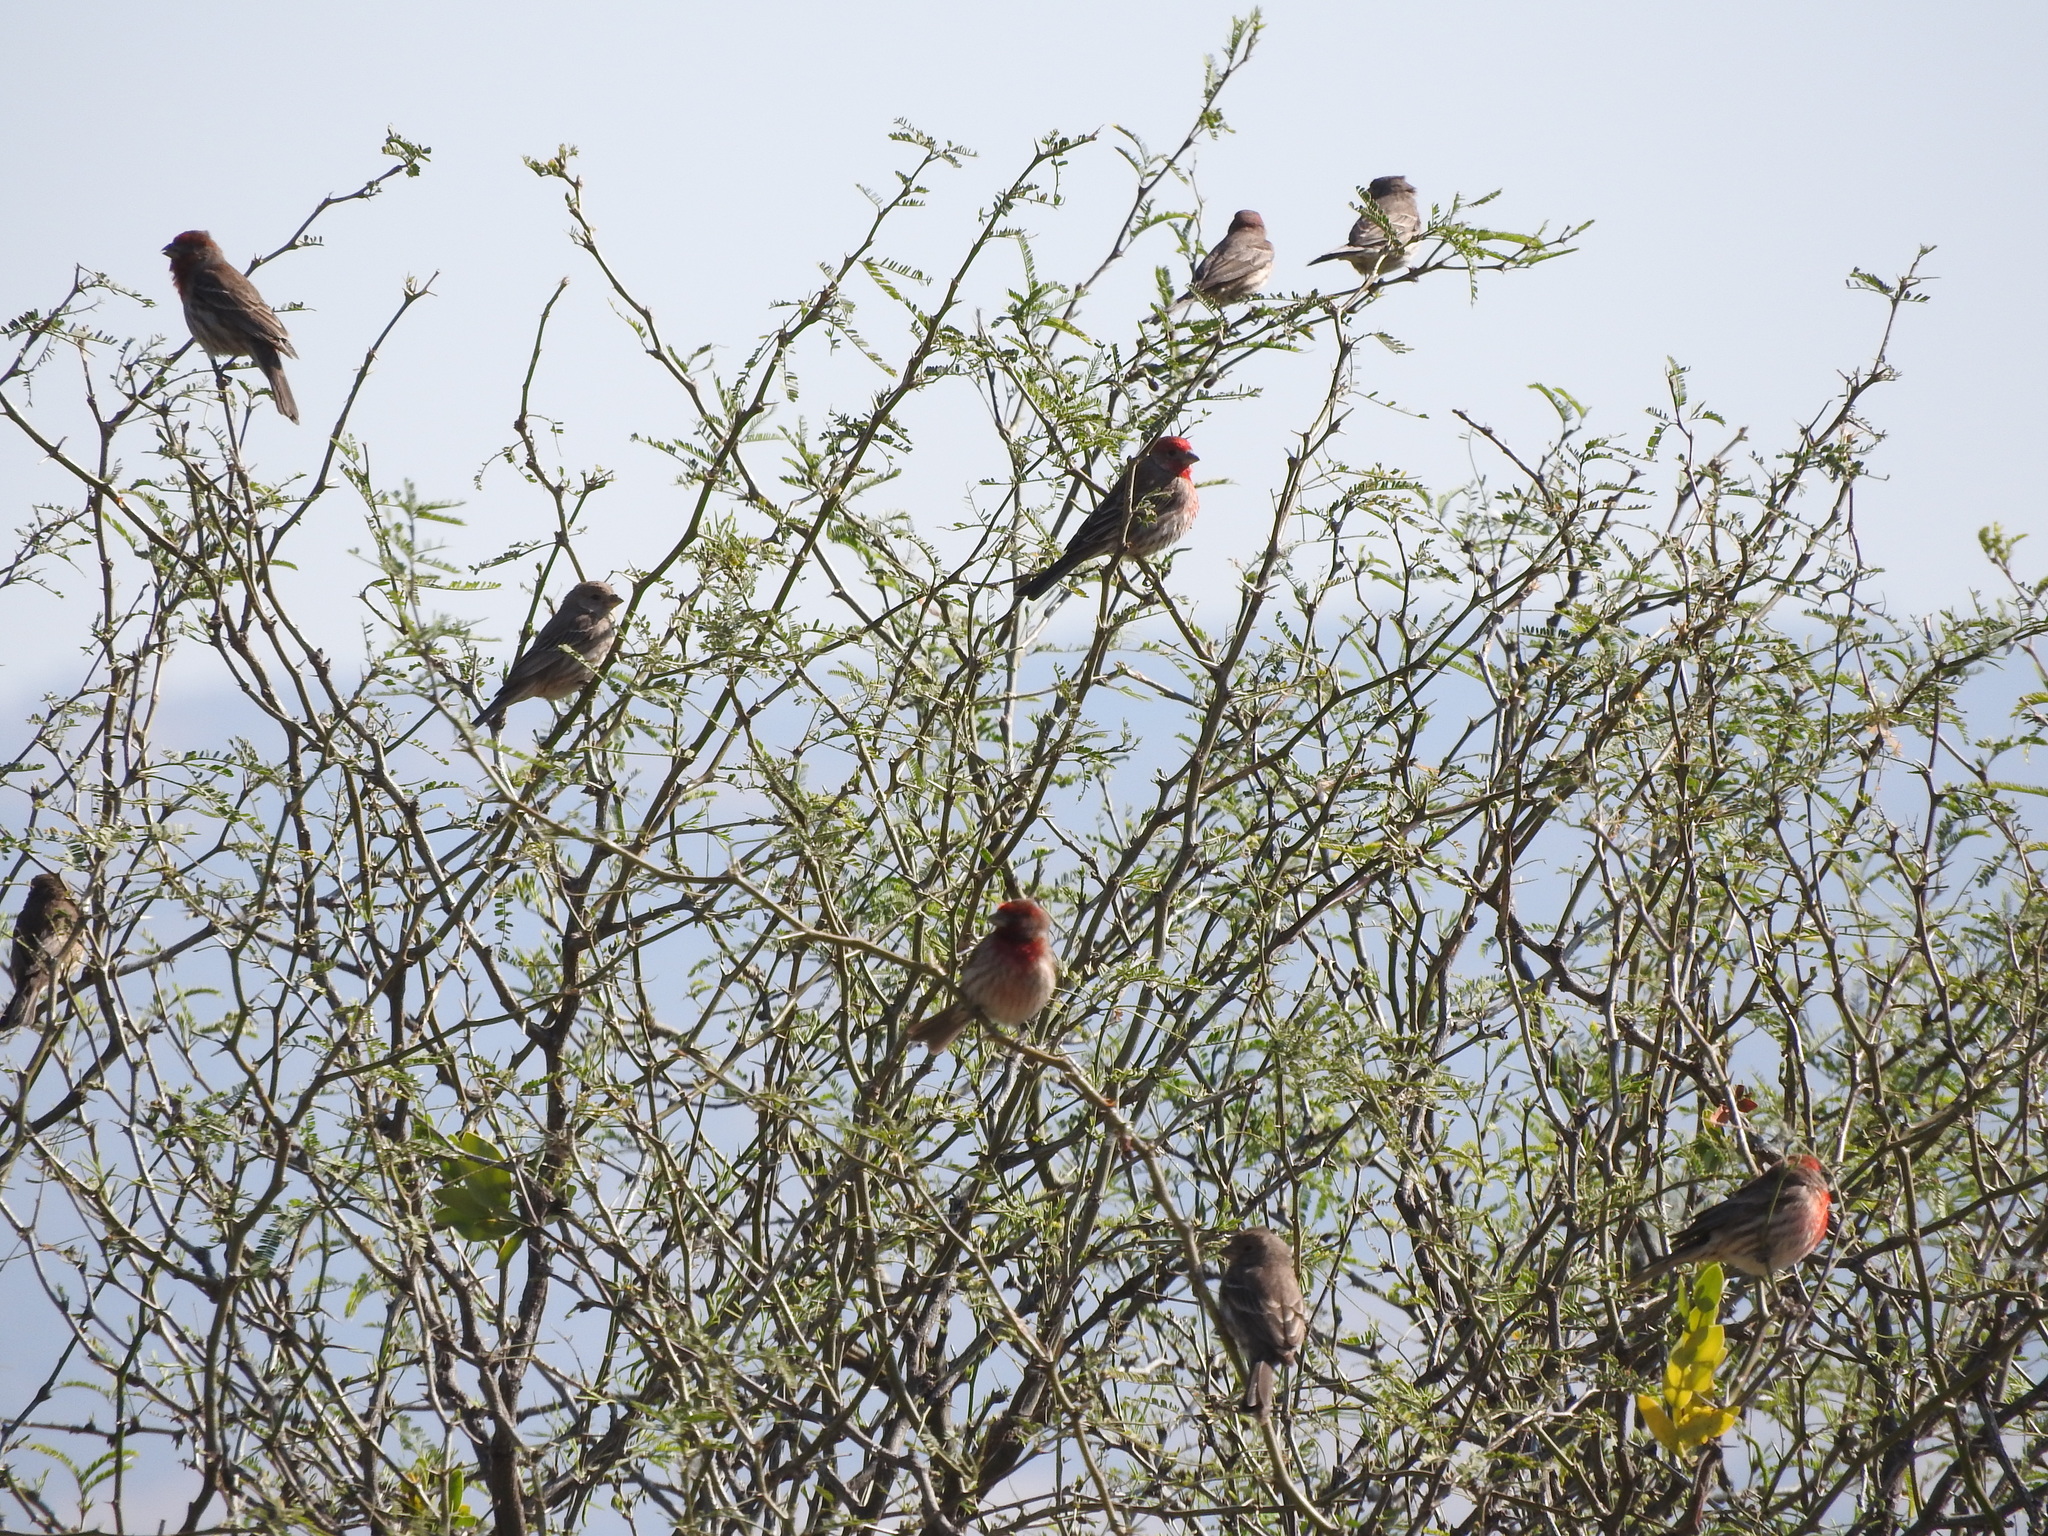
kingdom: Animalia
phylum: Chordata
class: Aves
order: Passeriformes
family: Fringillidae
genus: Haemorhous
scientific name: Haemorhous mexicanus
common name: House finch
